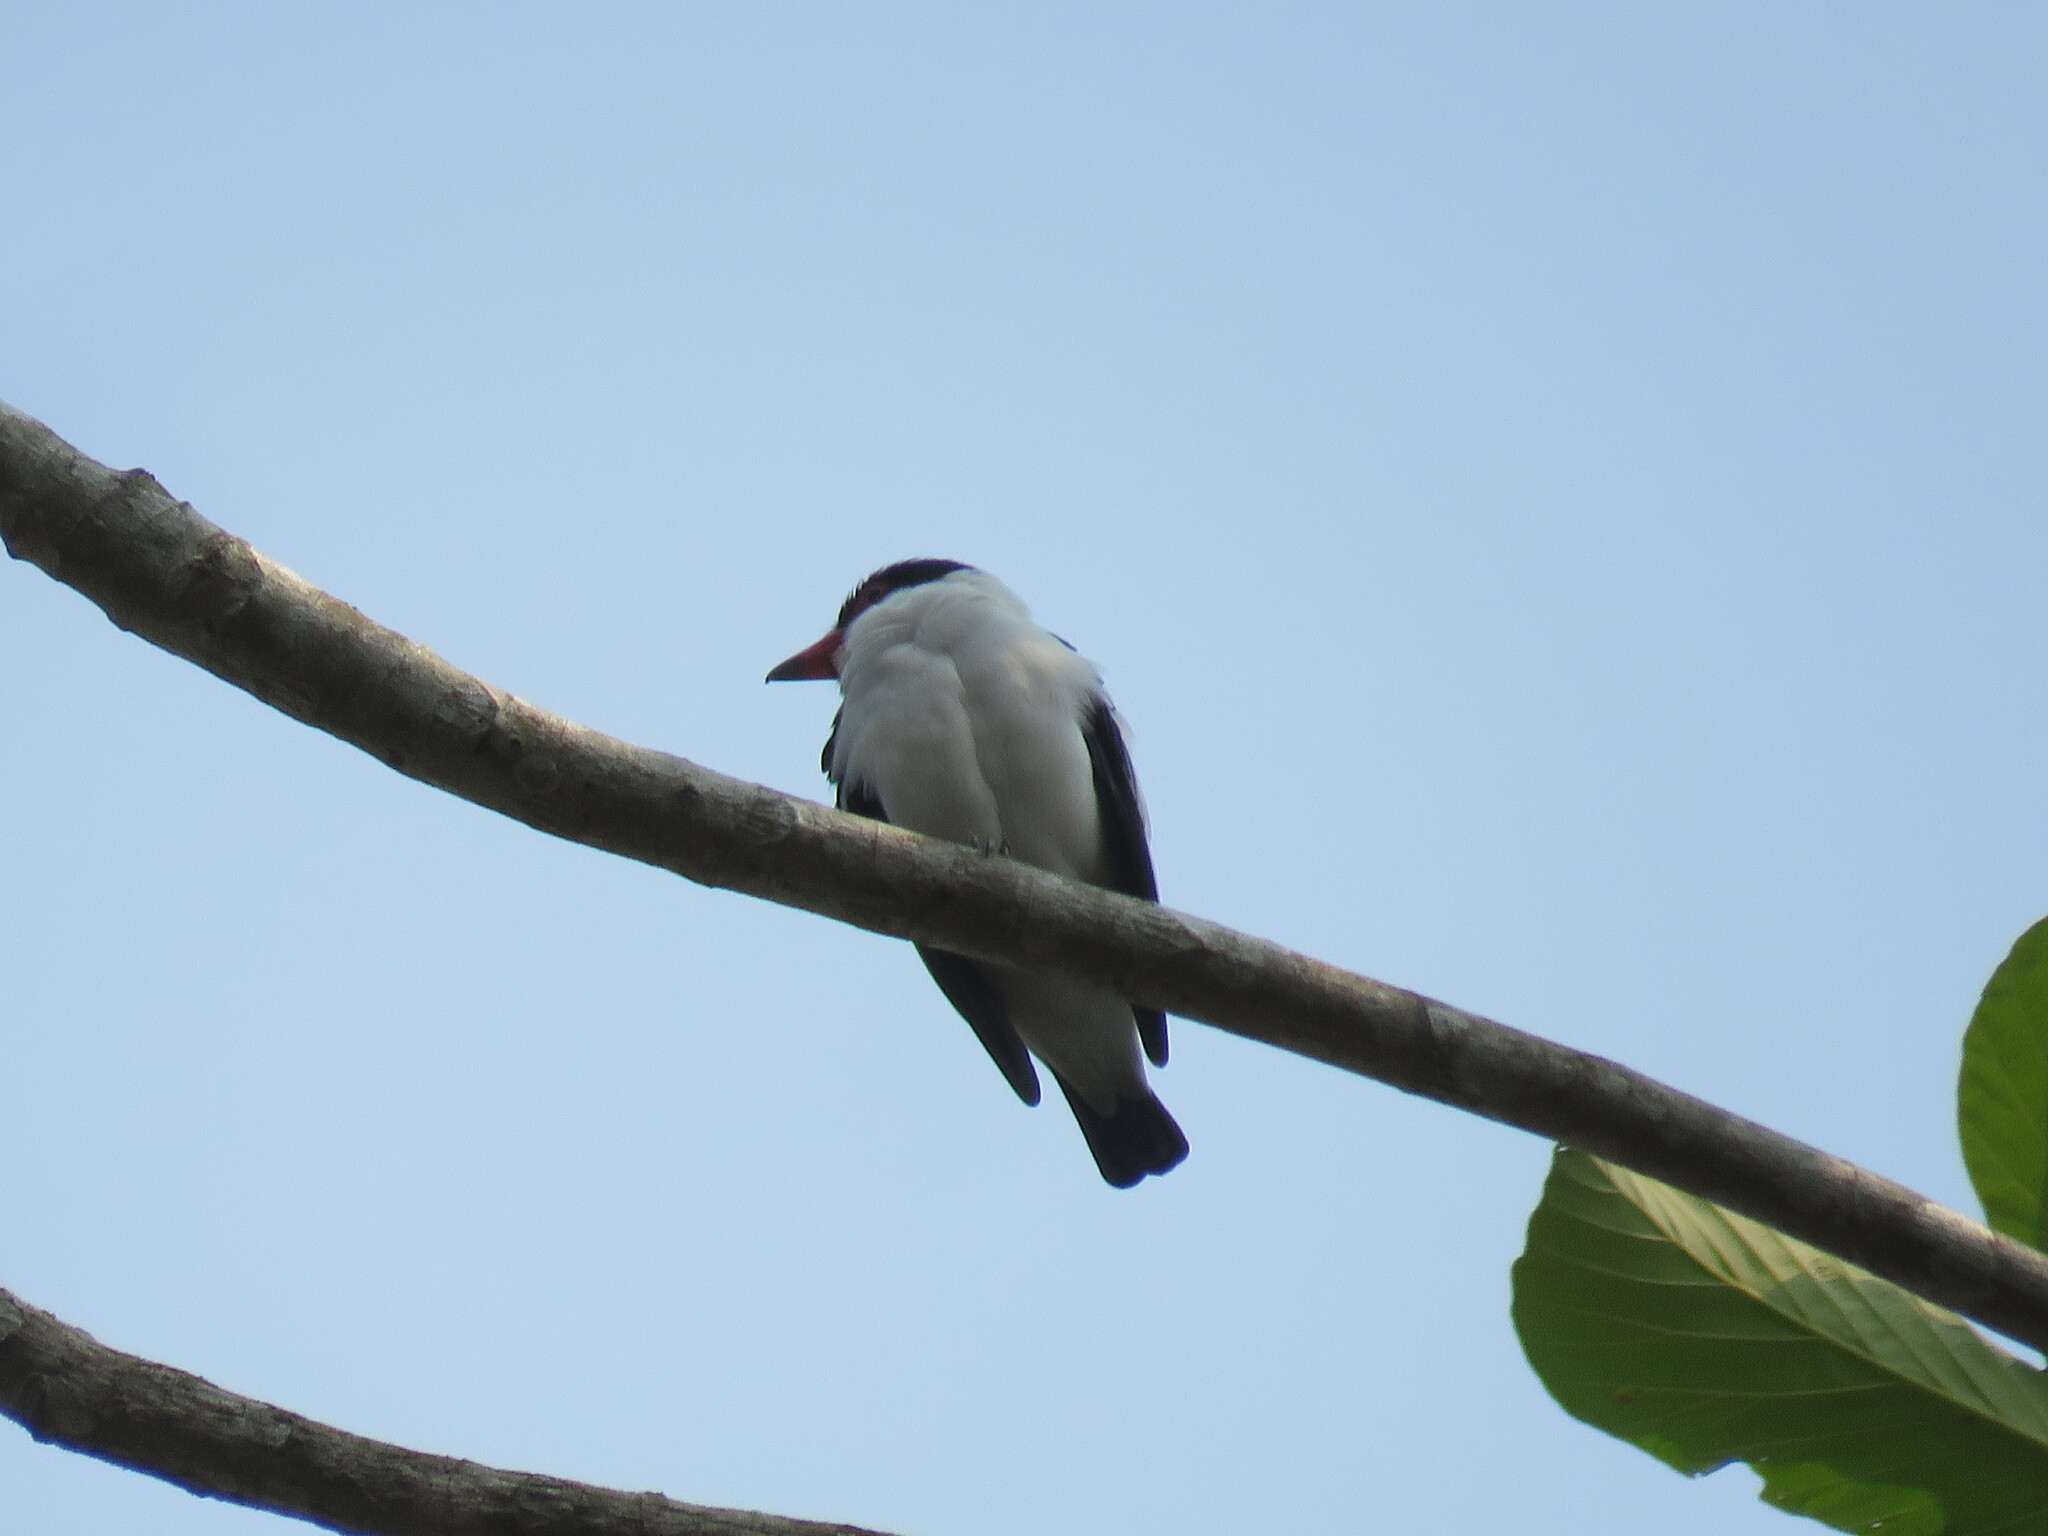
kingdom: Animalia
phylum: Chordata
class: Aves
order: Passeriformes
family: Cotingidae
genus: Tityra
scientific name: Tityra cayana
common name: Black-tailed tityra
